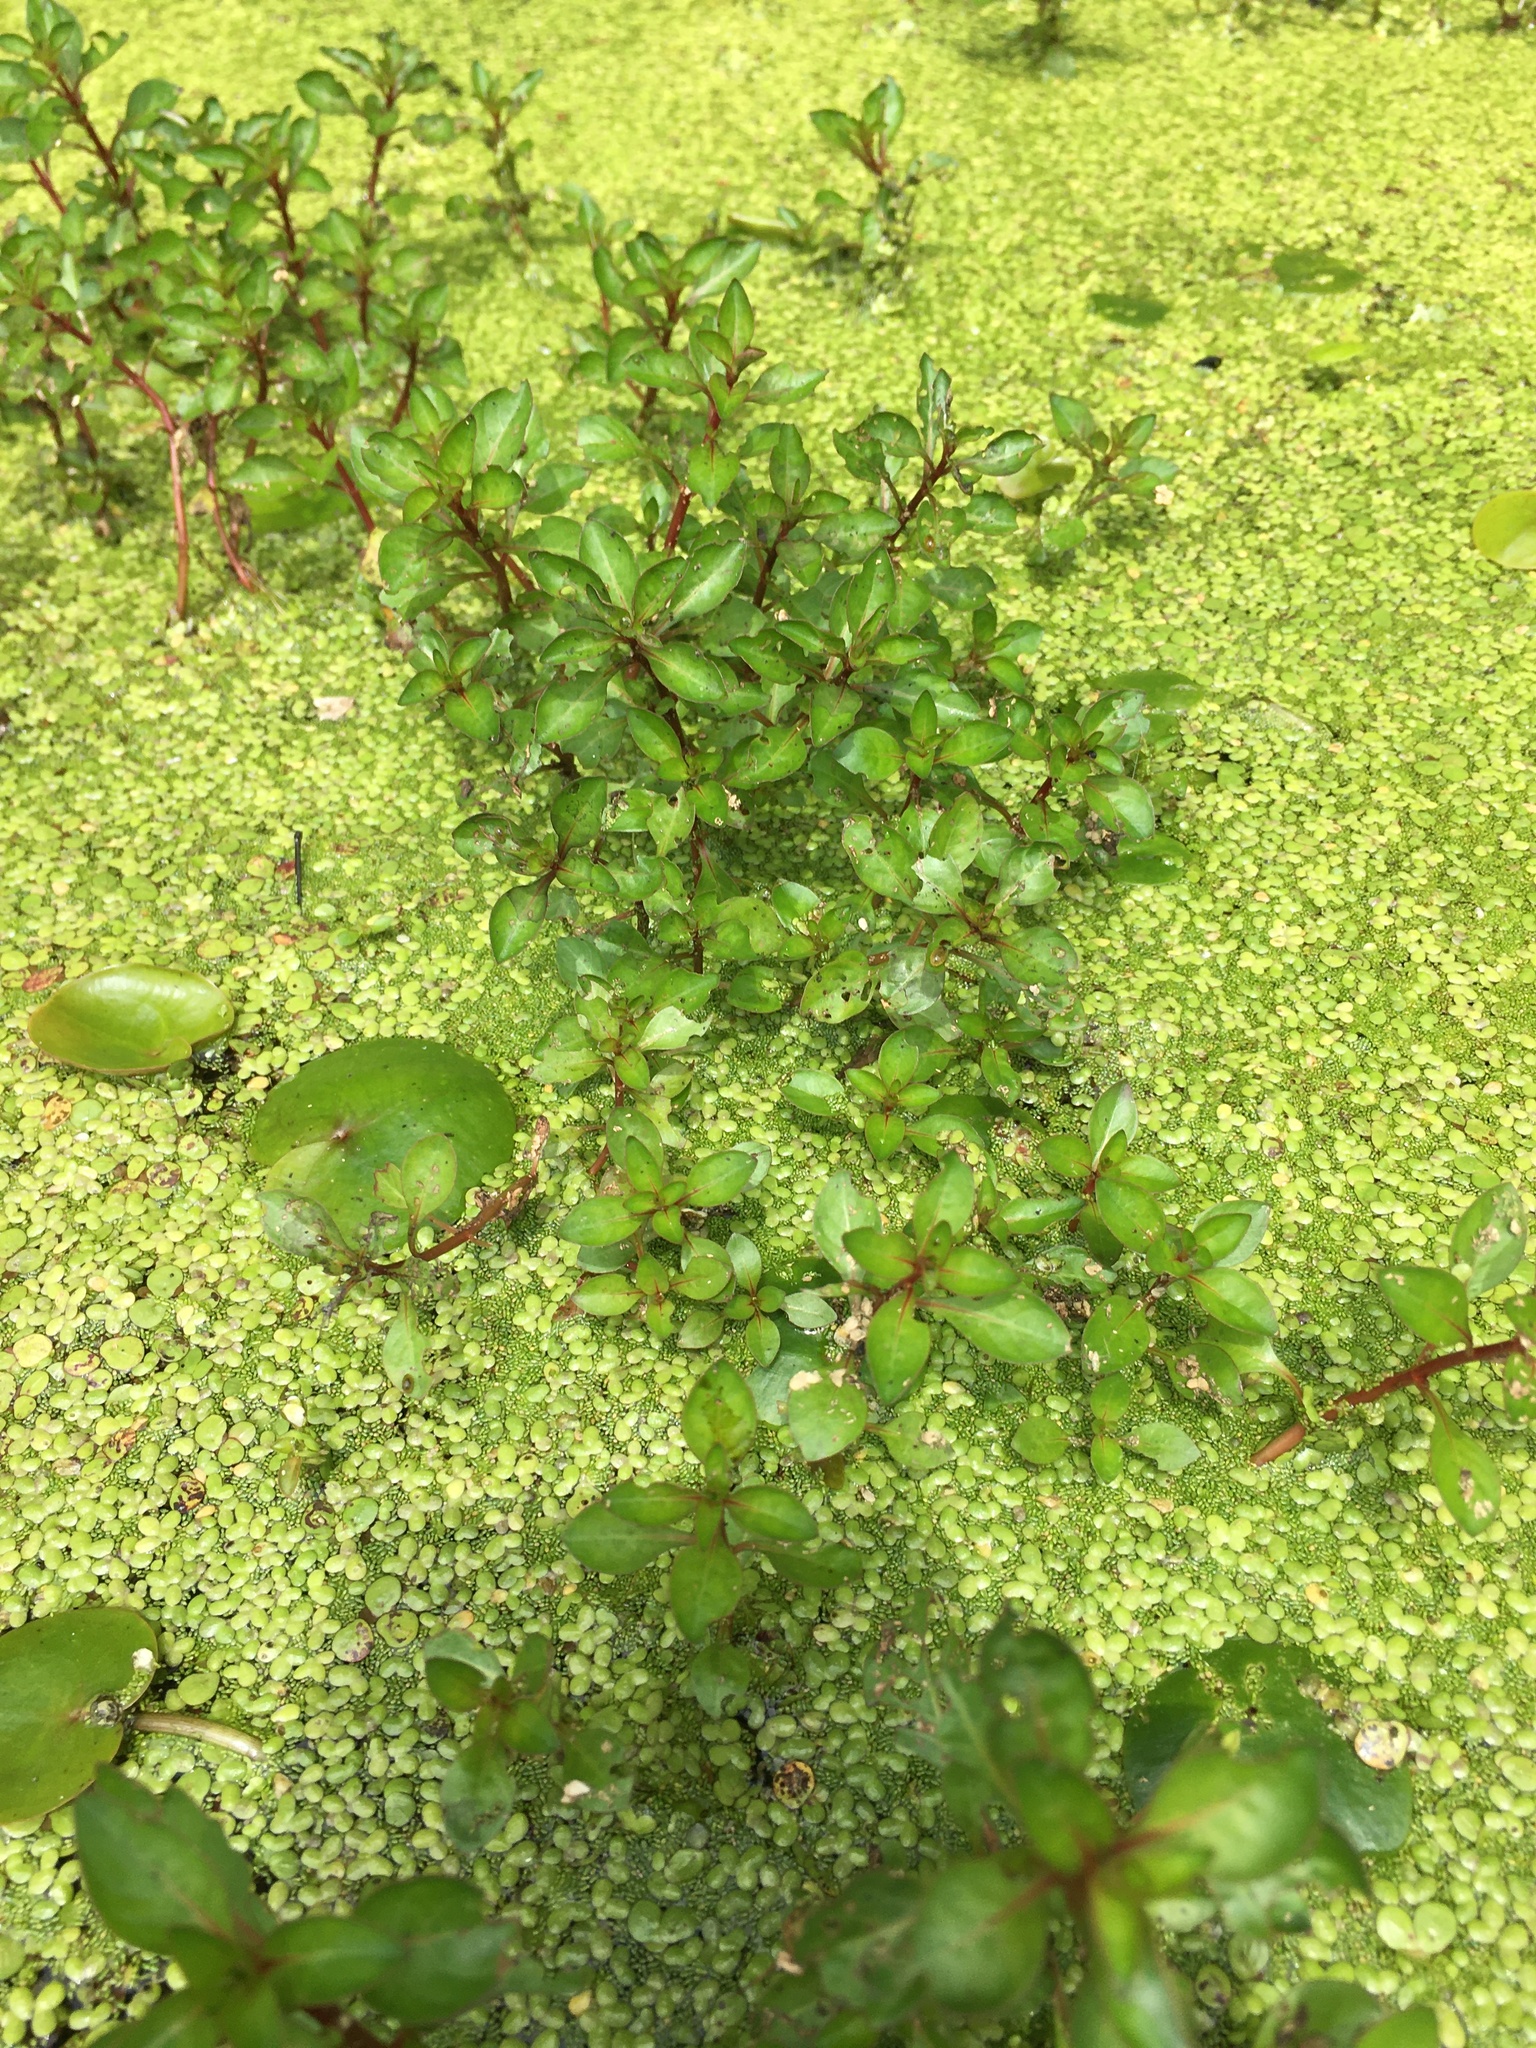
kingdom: Plantae
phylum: Tracheophyta
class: Magnoliopsida
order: Myrtales
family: Onagraceae
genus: Ludwigia
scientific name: Ludwigia palustris
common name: Hampshire-purslane
